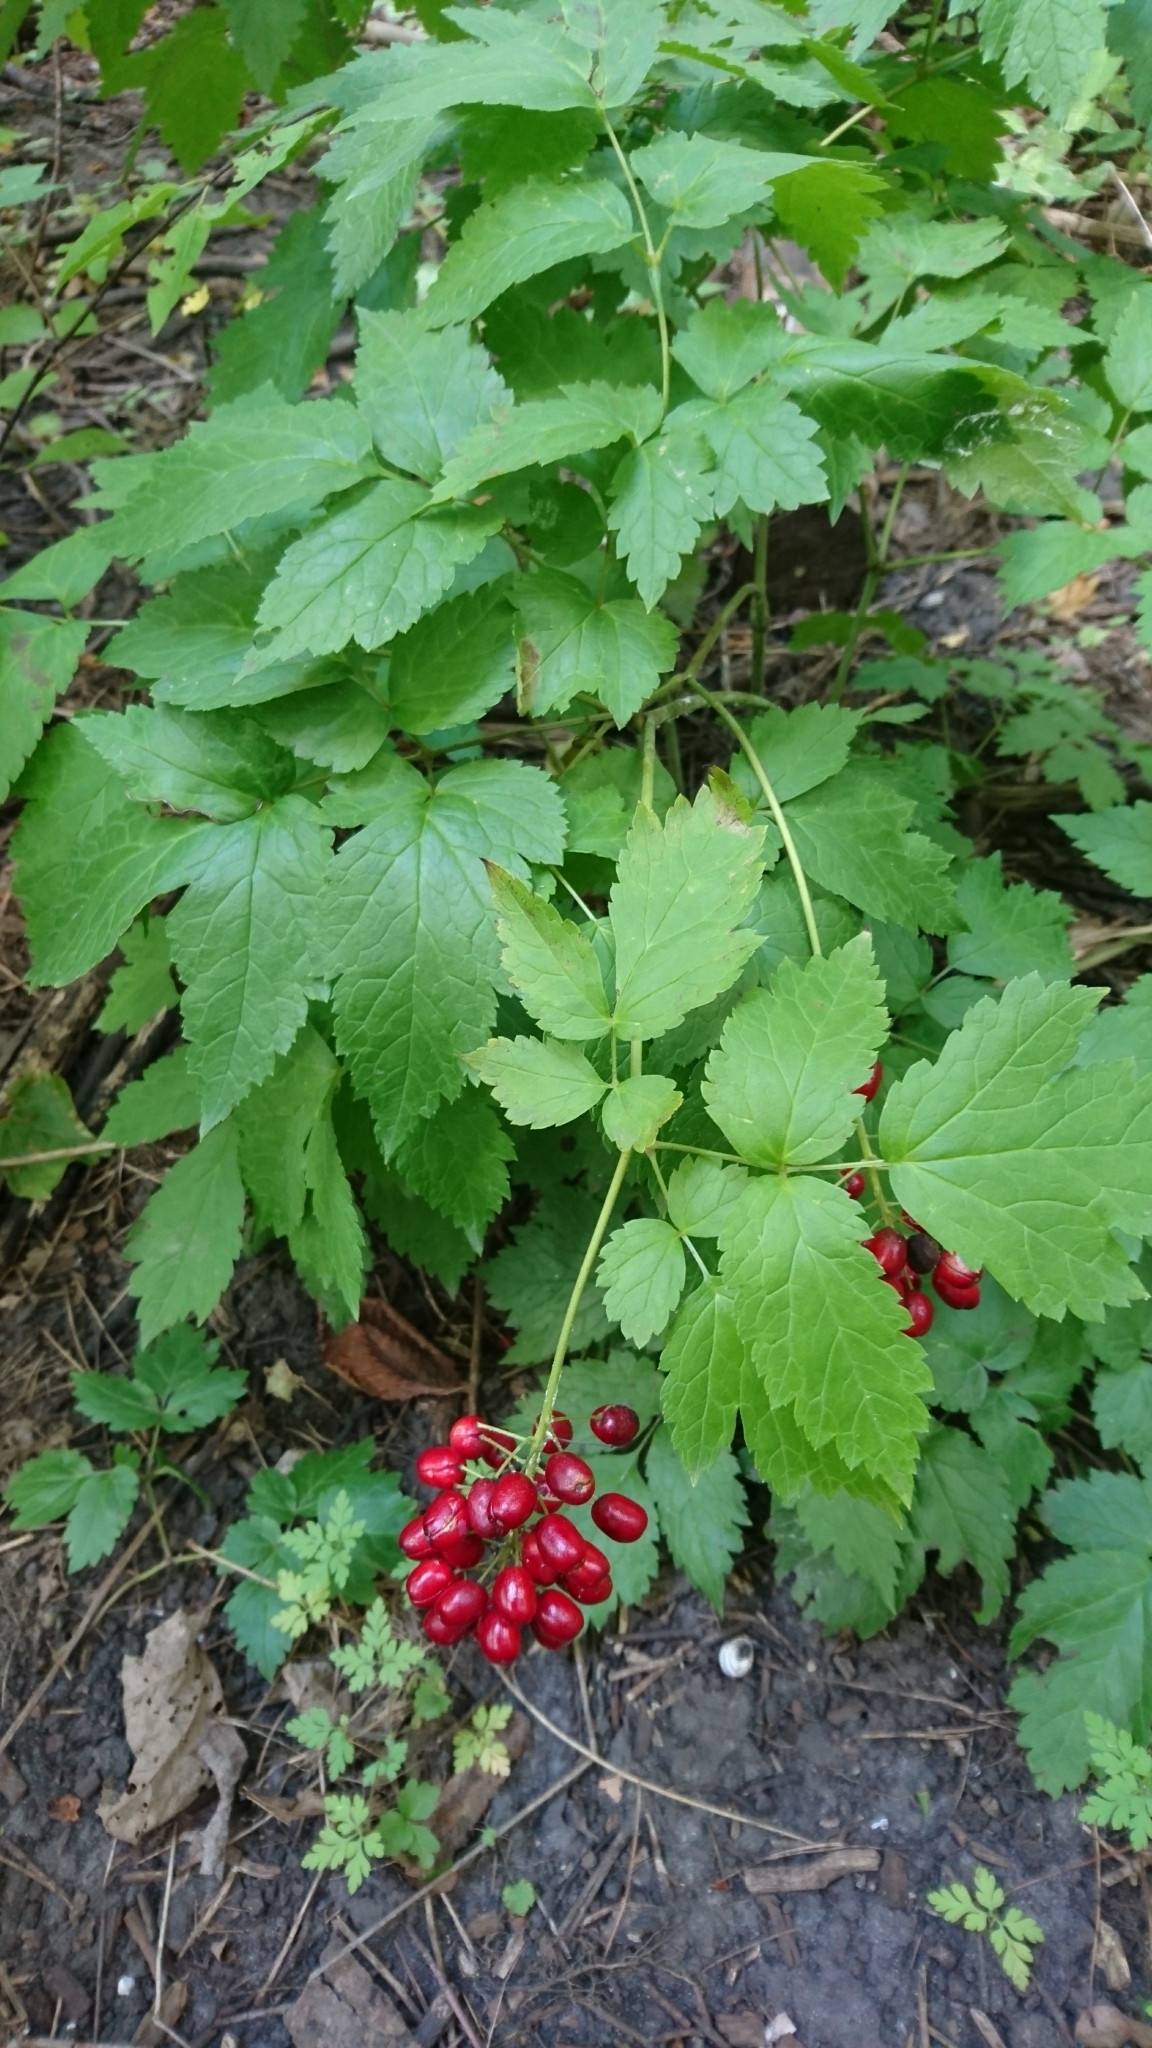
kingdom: Plantae
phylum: Tracheophyta
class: Magnoliopsida
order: Ranunculales
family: Ranunculaceae
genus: Actaea
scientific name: Actaea rubra
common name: Red baneberry
